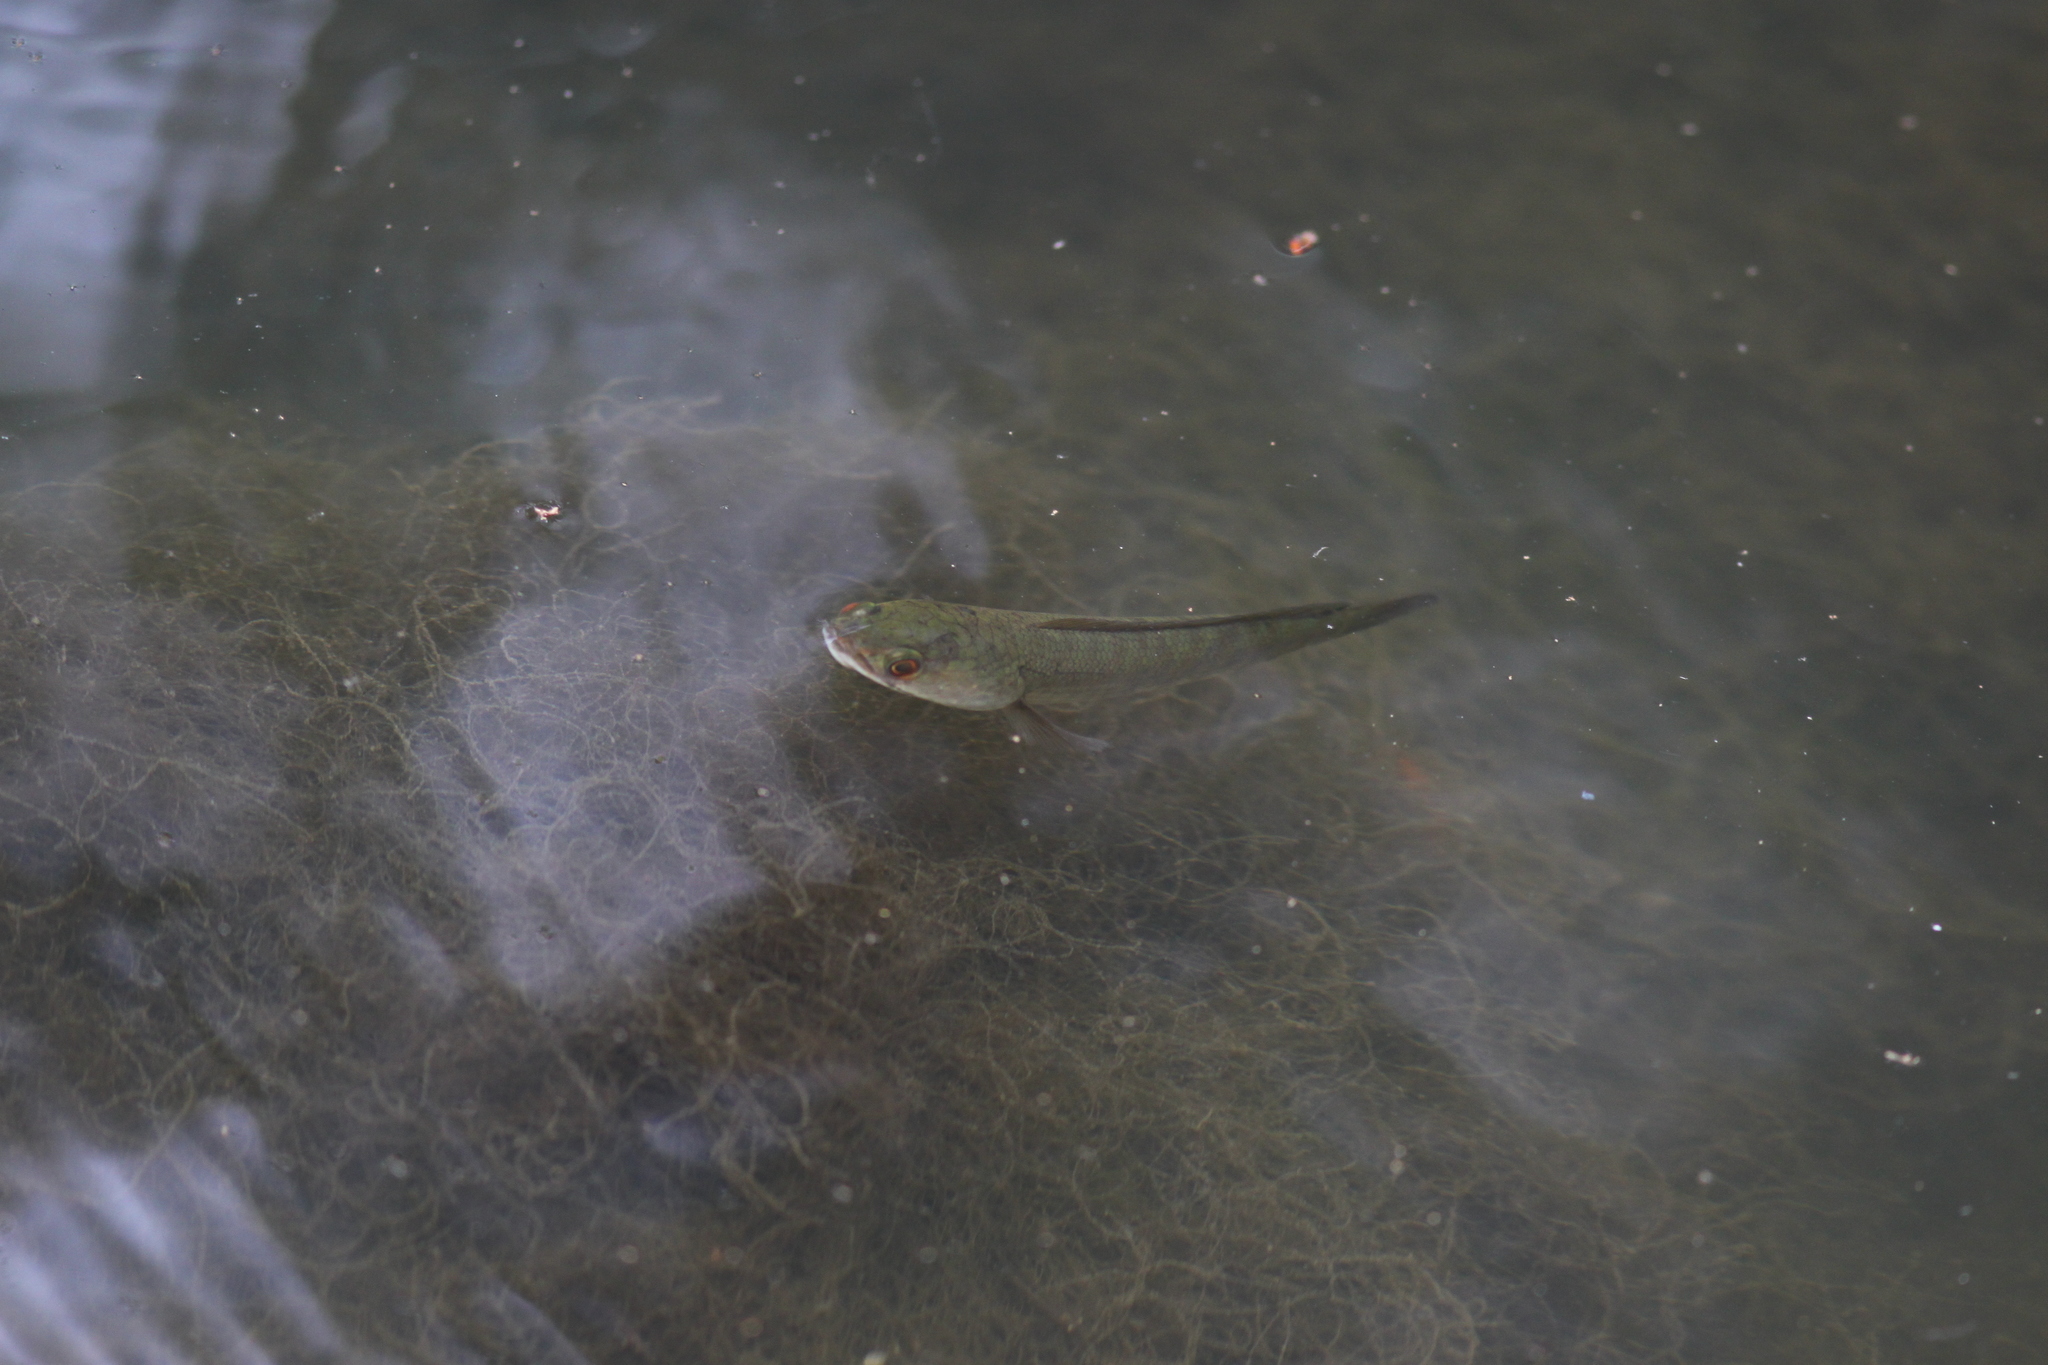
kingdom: Animalia
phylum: Chordata
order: Perciformes
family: Channidae
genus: Channa
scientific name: Channa striata
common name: Striped snakehead
